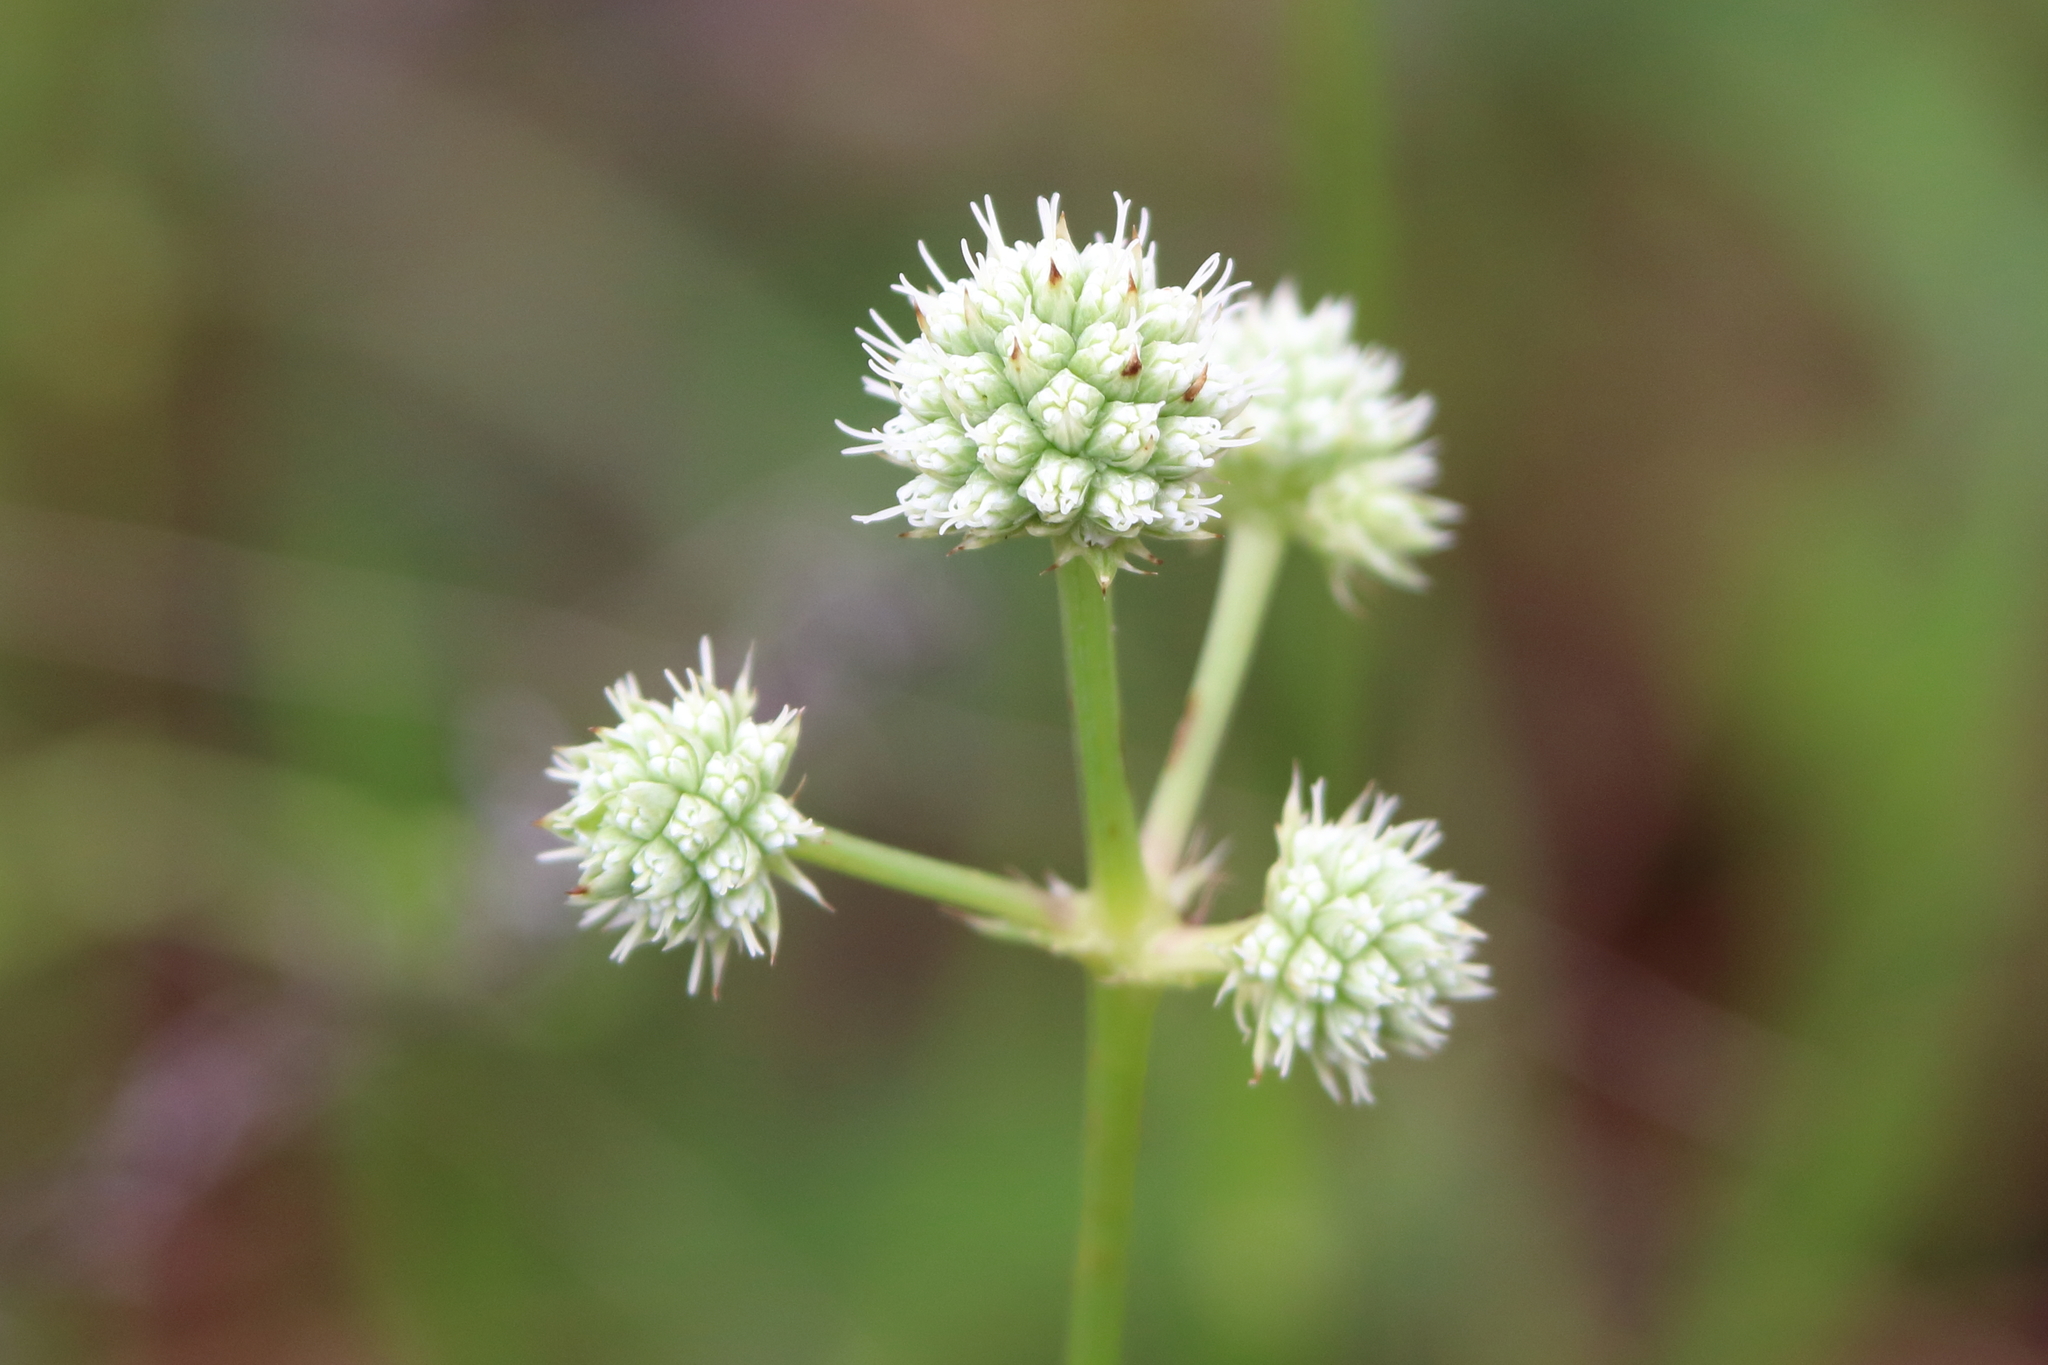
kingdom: Plantae
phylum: Tracheophyta
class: Magnoliopsida
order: Apiales
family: Apiaceae
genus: Eryngium
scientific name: Eryngium yuccifolium
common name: Button eryngo
